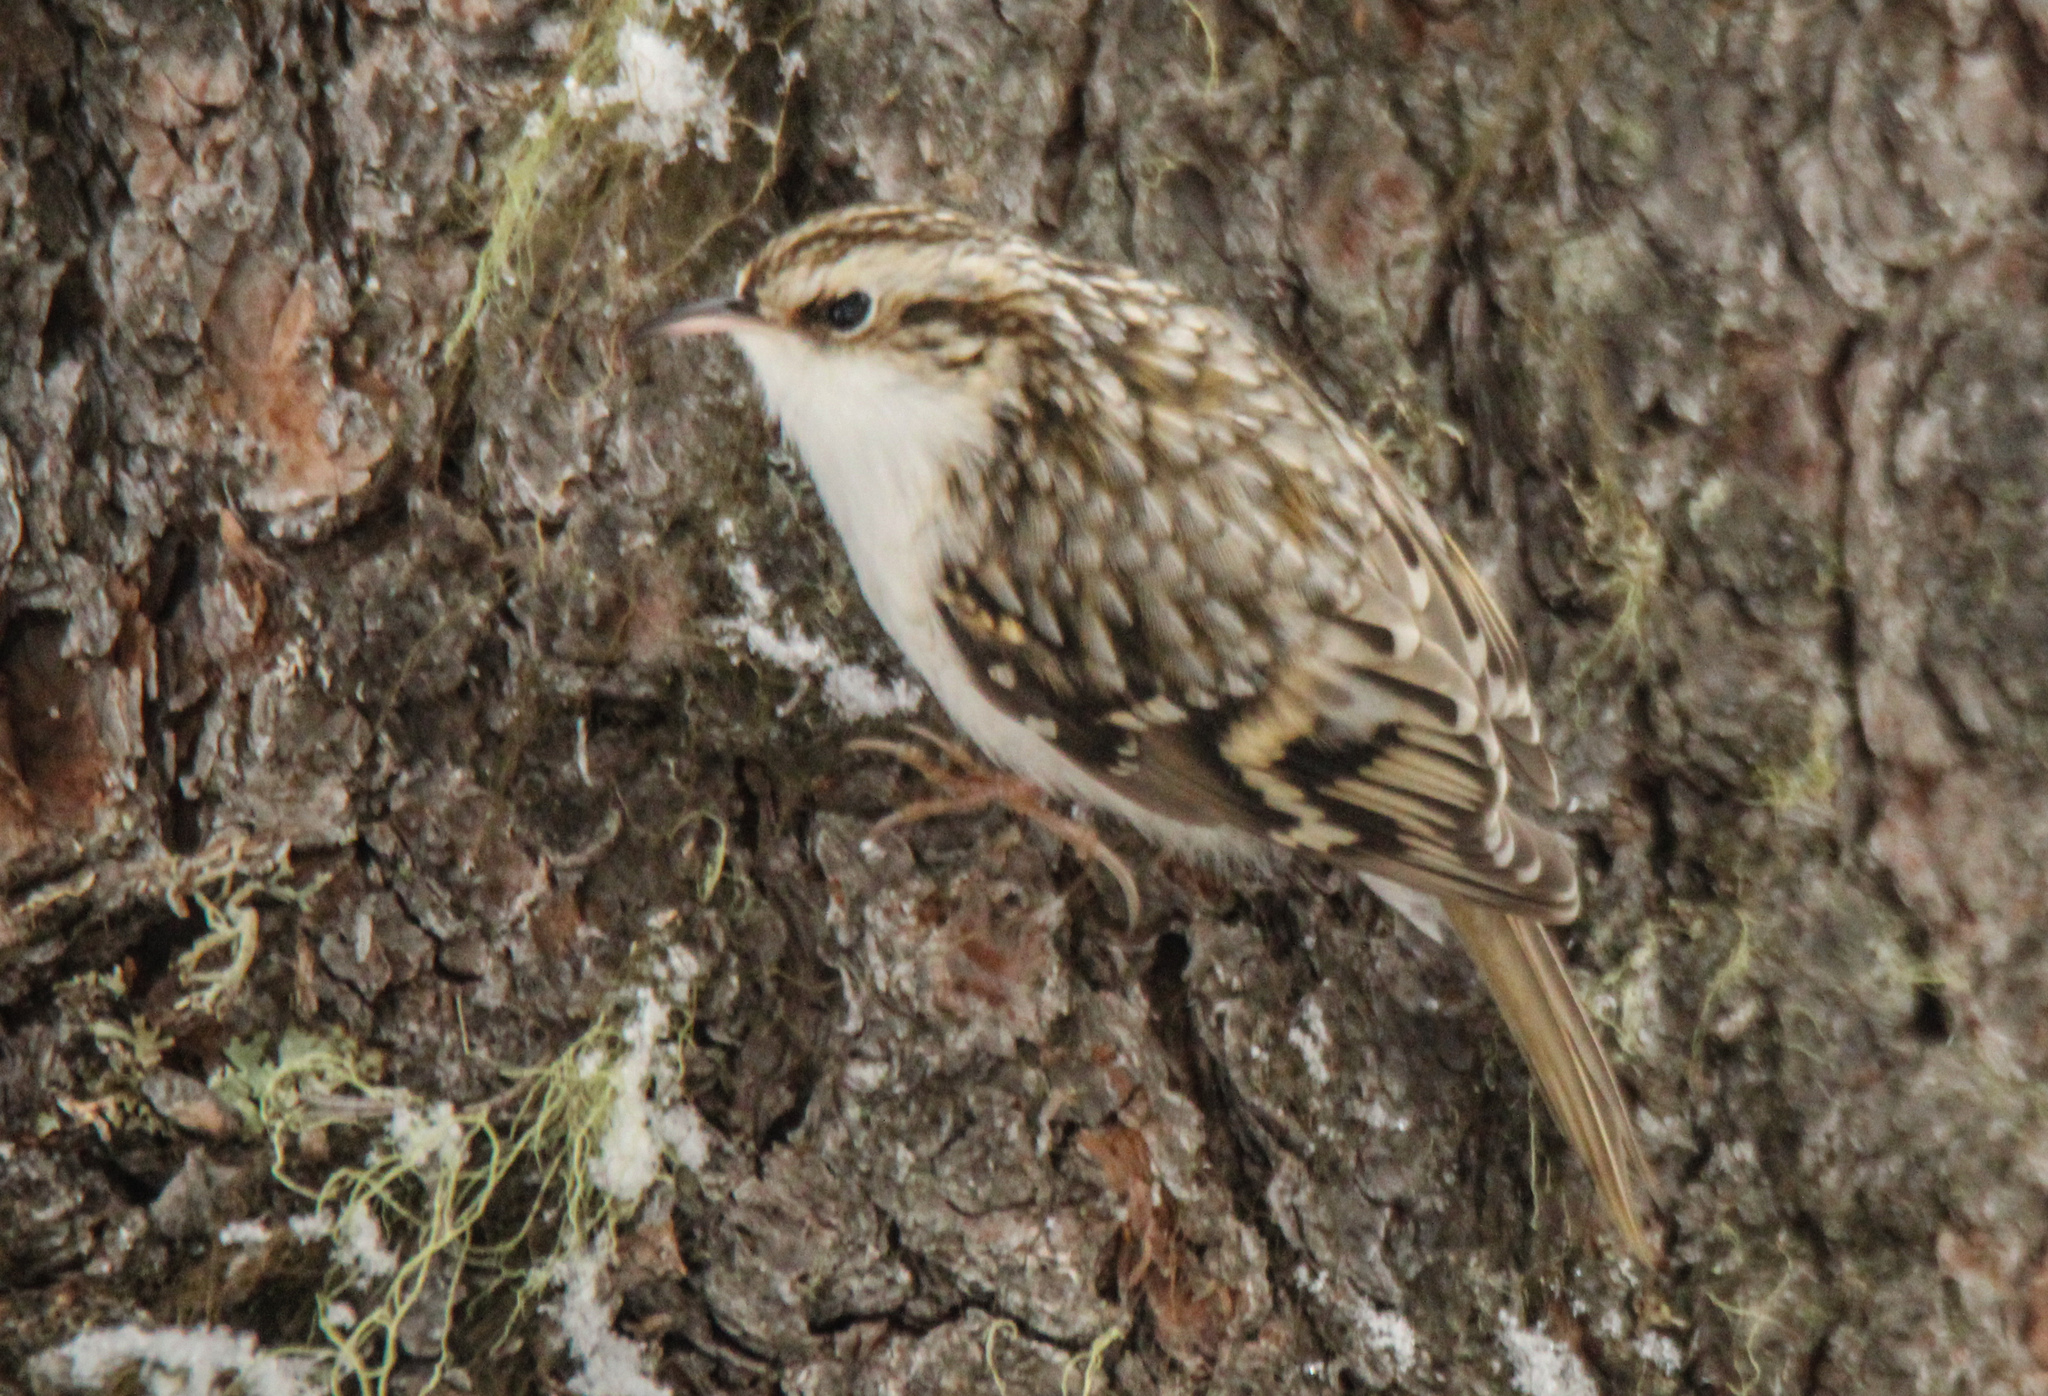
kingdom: Animalia
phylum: Chordata
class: Aves
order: Passeriformes
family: Certhiidae
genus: Certhia
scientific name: Certhia familiaris
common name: Eurasian treecreeper
